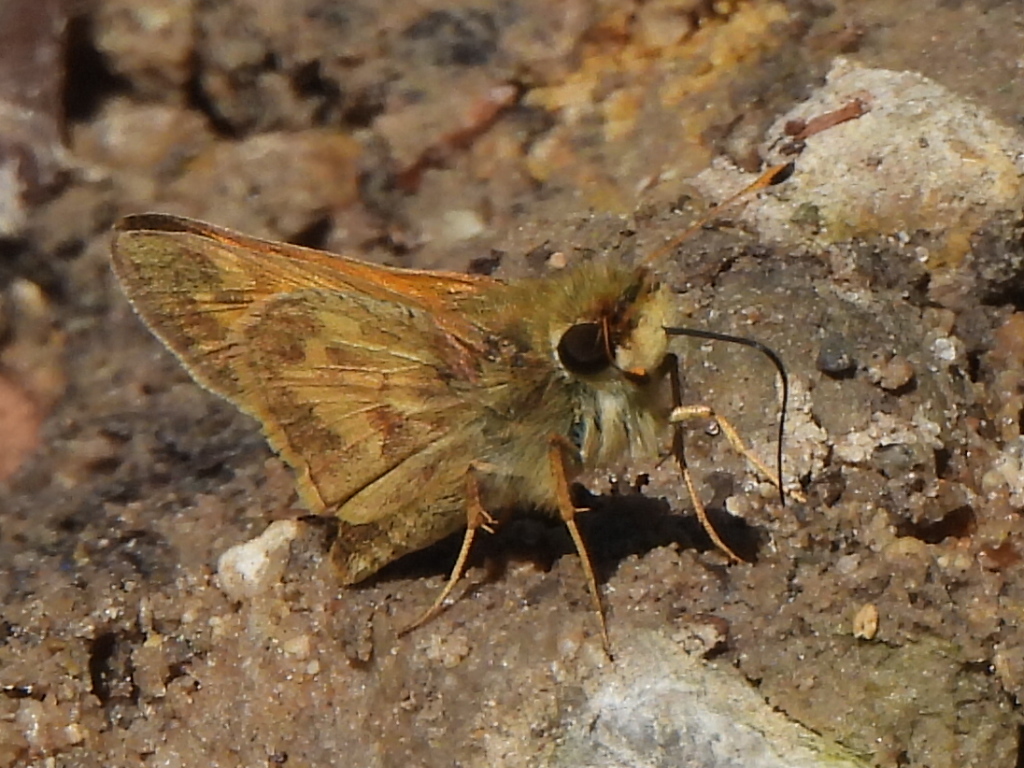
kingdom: Animalia
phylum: Arthropoda
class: Insecta
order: Lepidoptera
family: Hesperiidae
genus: Atalopedes
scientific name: Atalopedes
